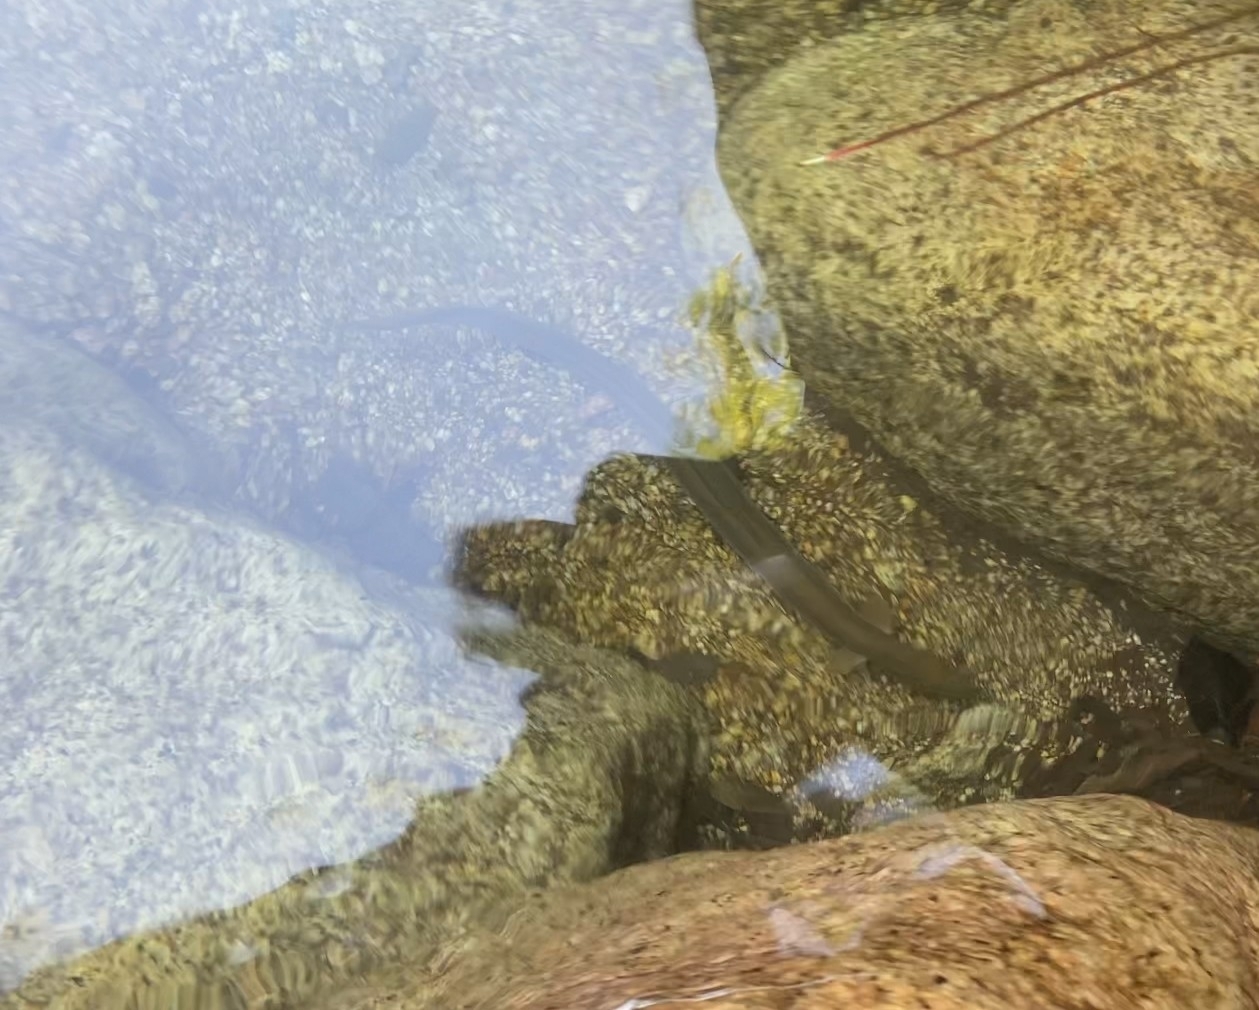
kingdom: Animalia
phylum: Chordata
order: Anguilliformes
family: Anguillidae
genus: Anguilla
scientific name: Anguilla anguilla
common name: European eel
